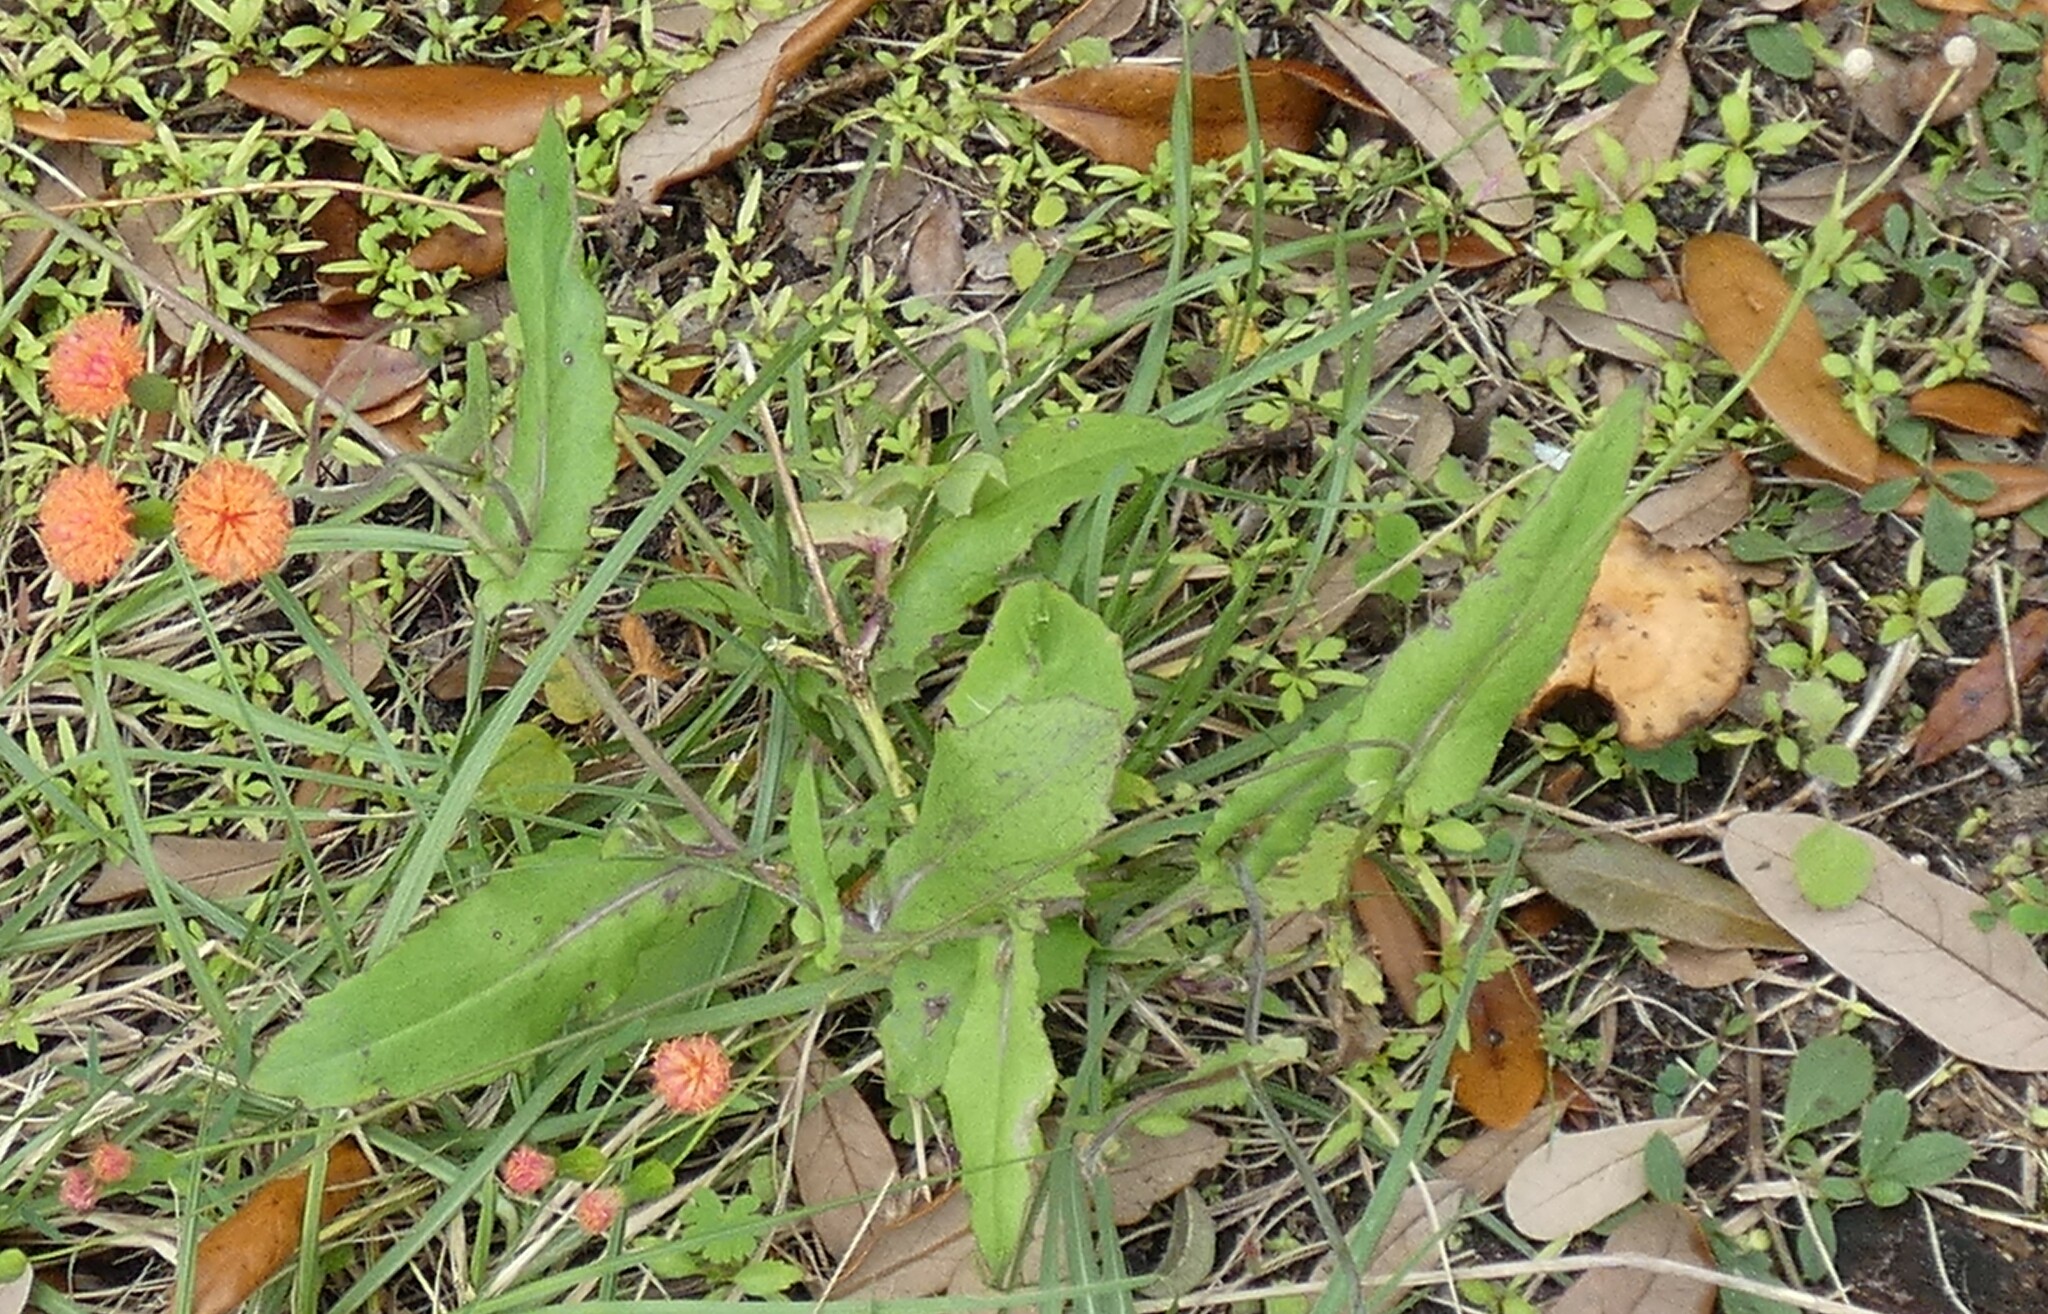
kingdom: Plantae
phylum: Tracheophyta
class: Magnoliopsida
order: Asterales
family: Asteraceae
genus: Emilia
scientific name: Emilia fosbergii
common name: Florida tasselflower
